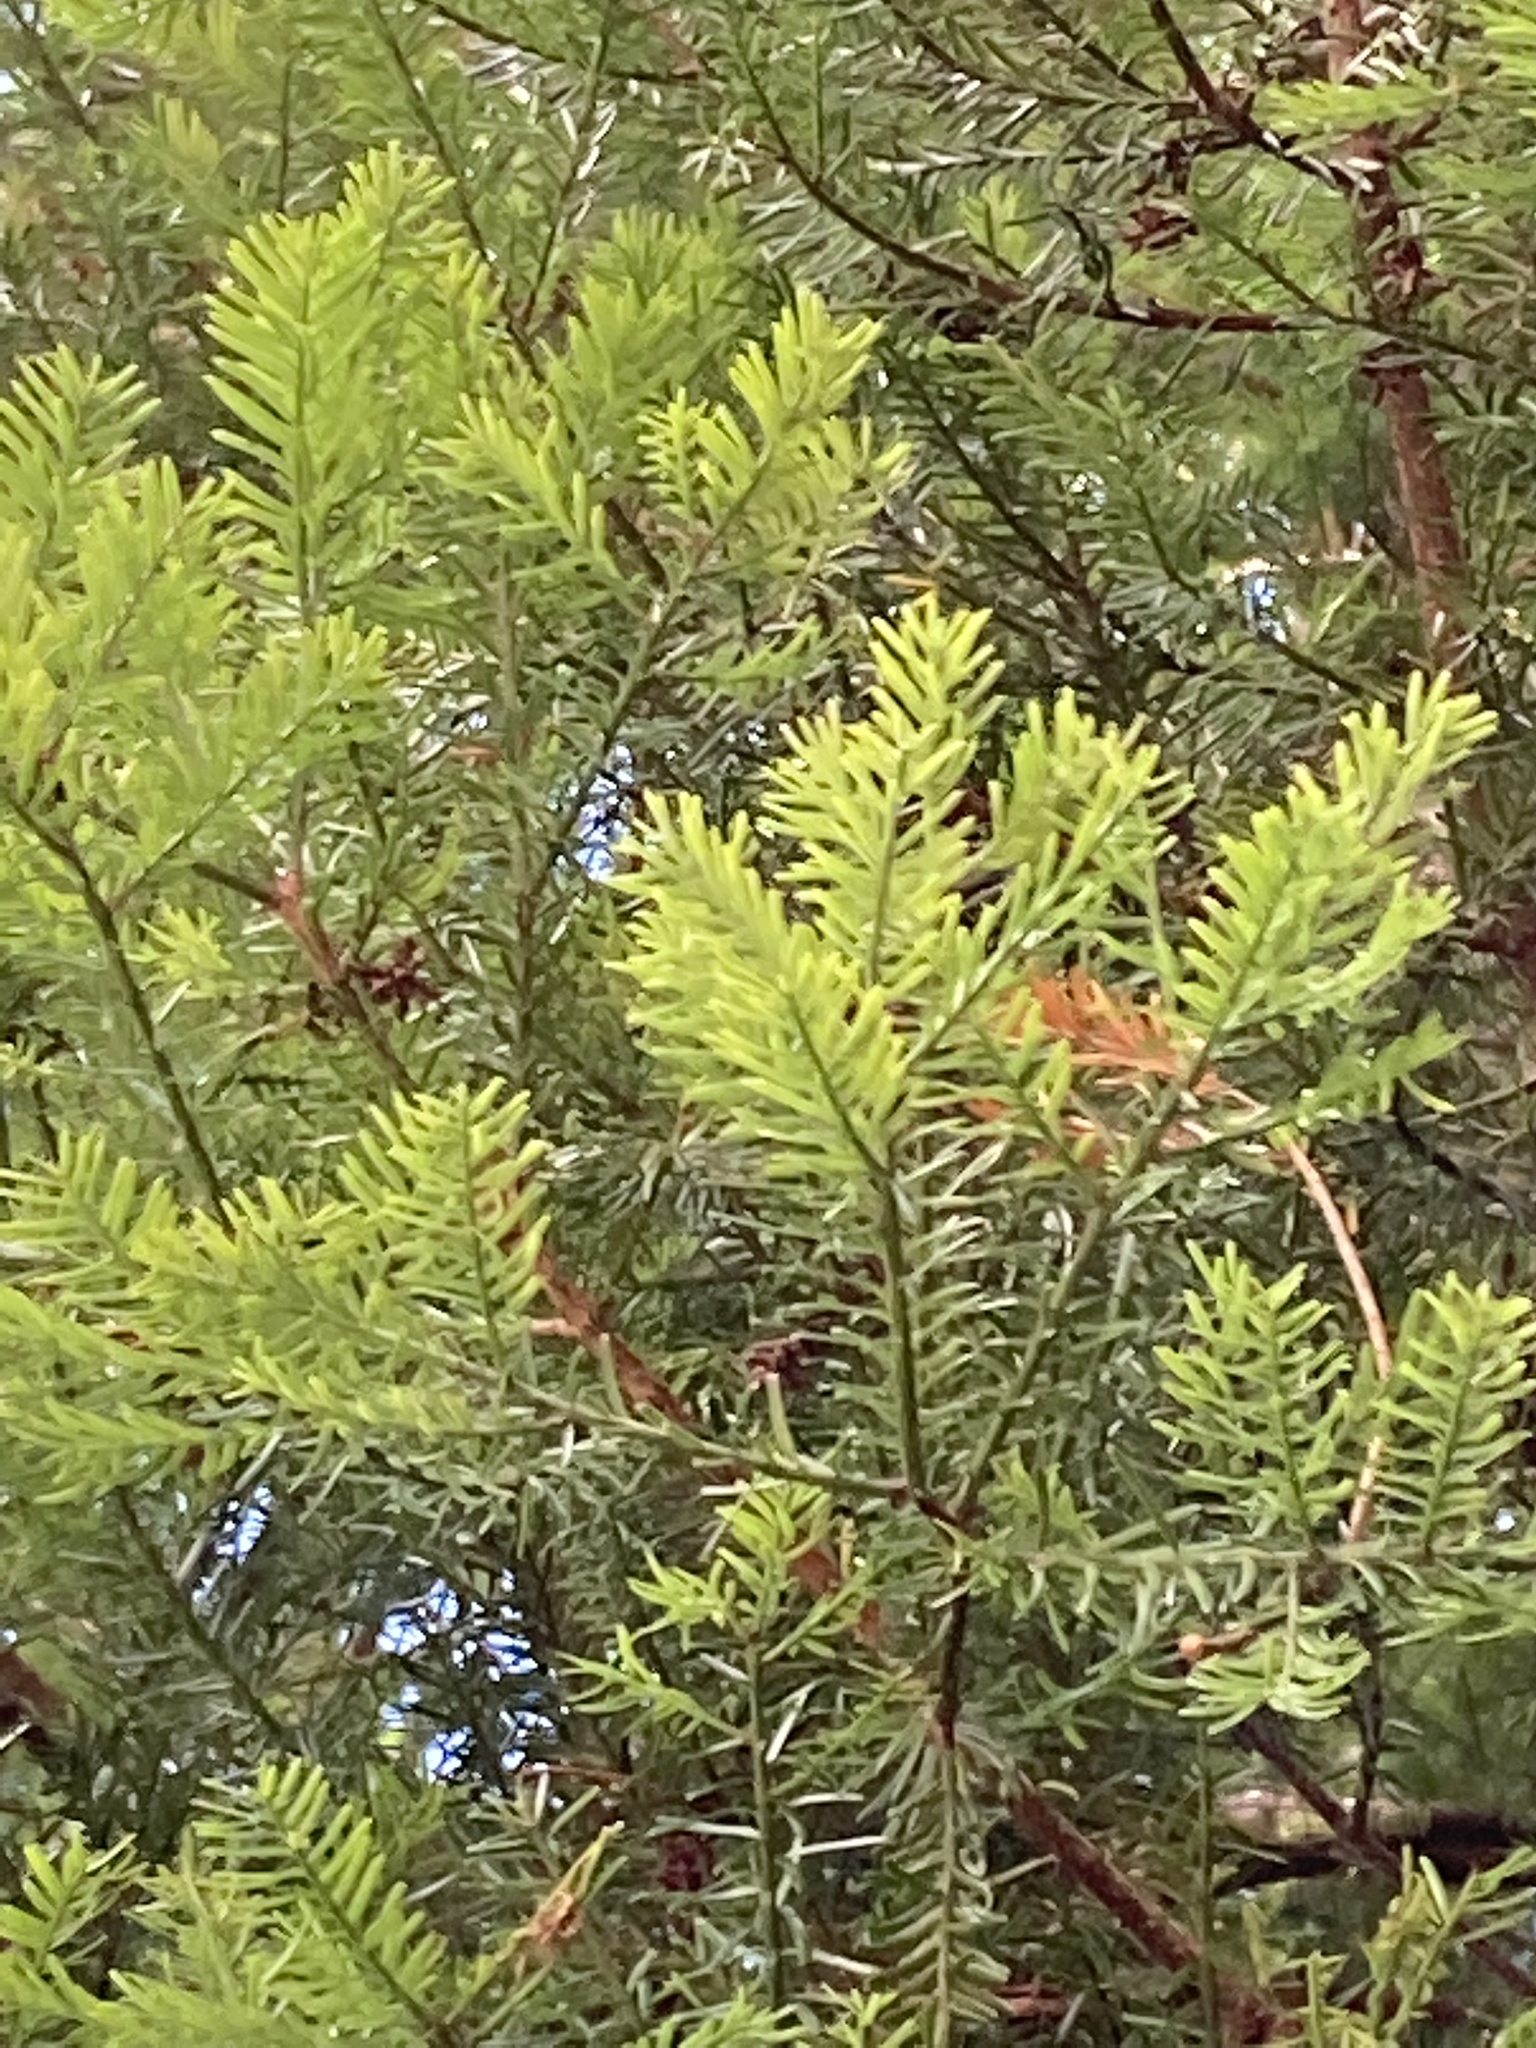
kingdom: Plantae
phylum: Tracheophyta
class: Pinopsida
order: Pinales
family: Podocarpaceae
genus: Prumnopitys
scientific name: Prumnopitys taxifolia
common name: Matai
